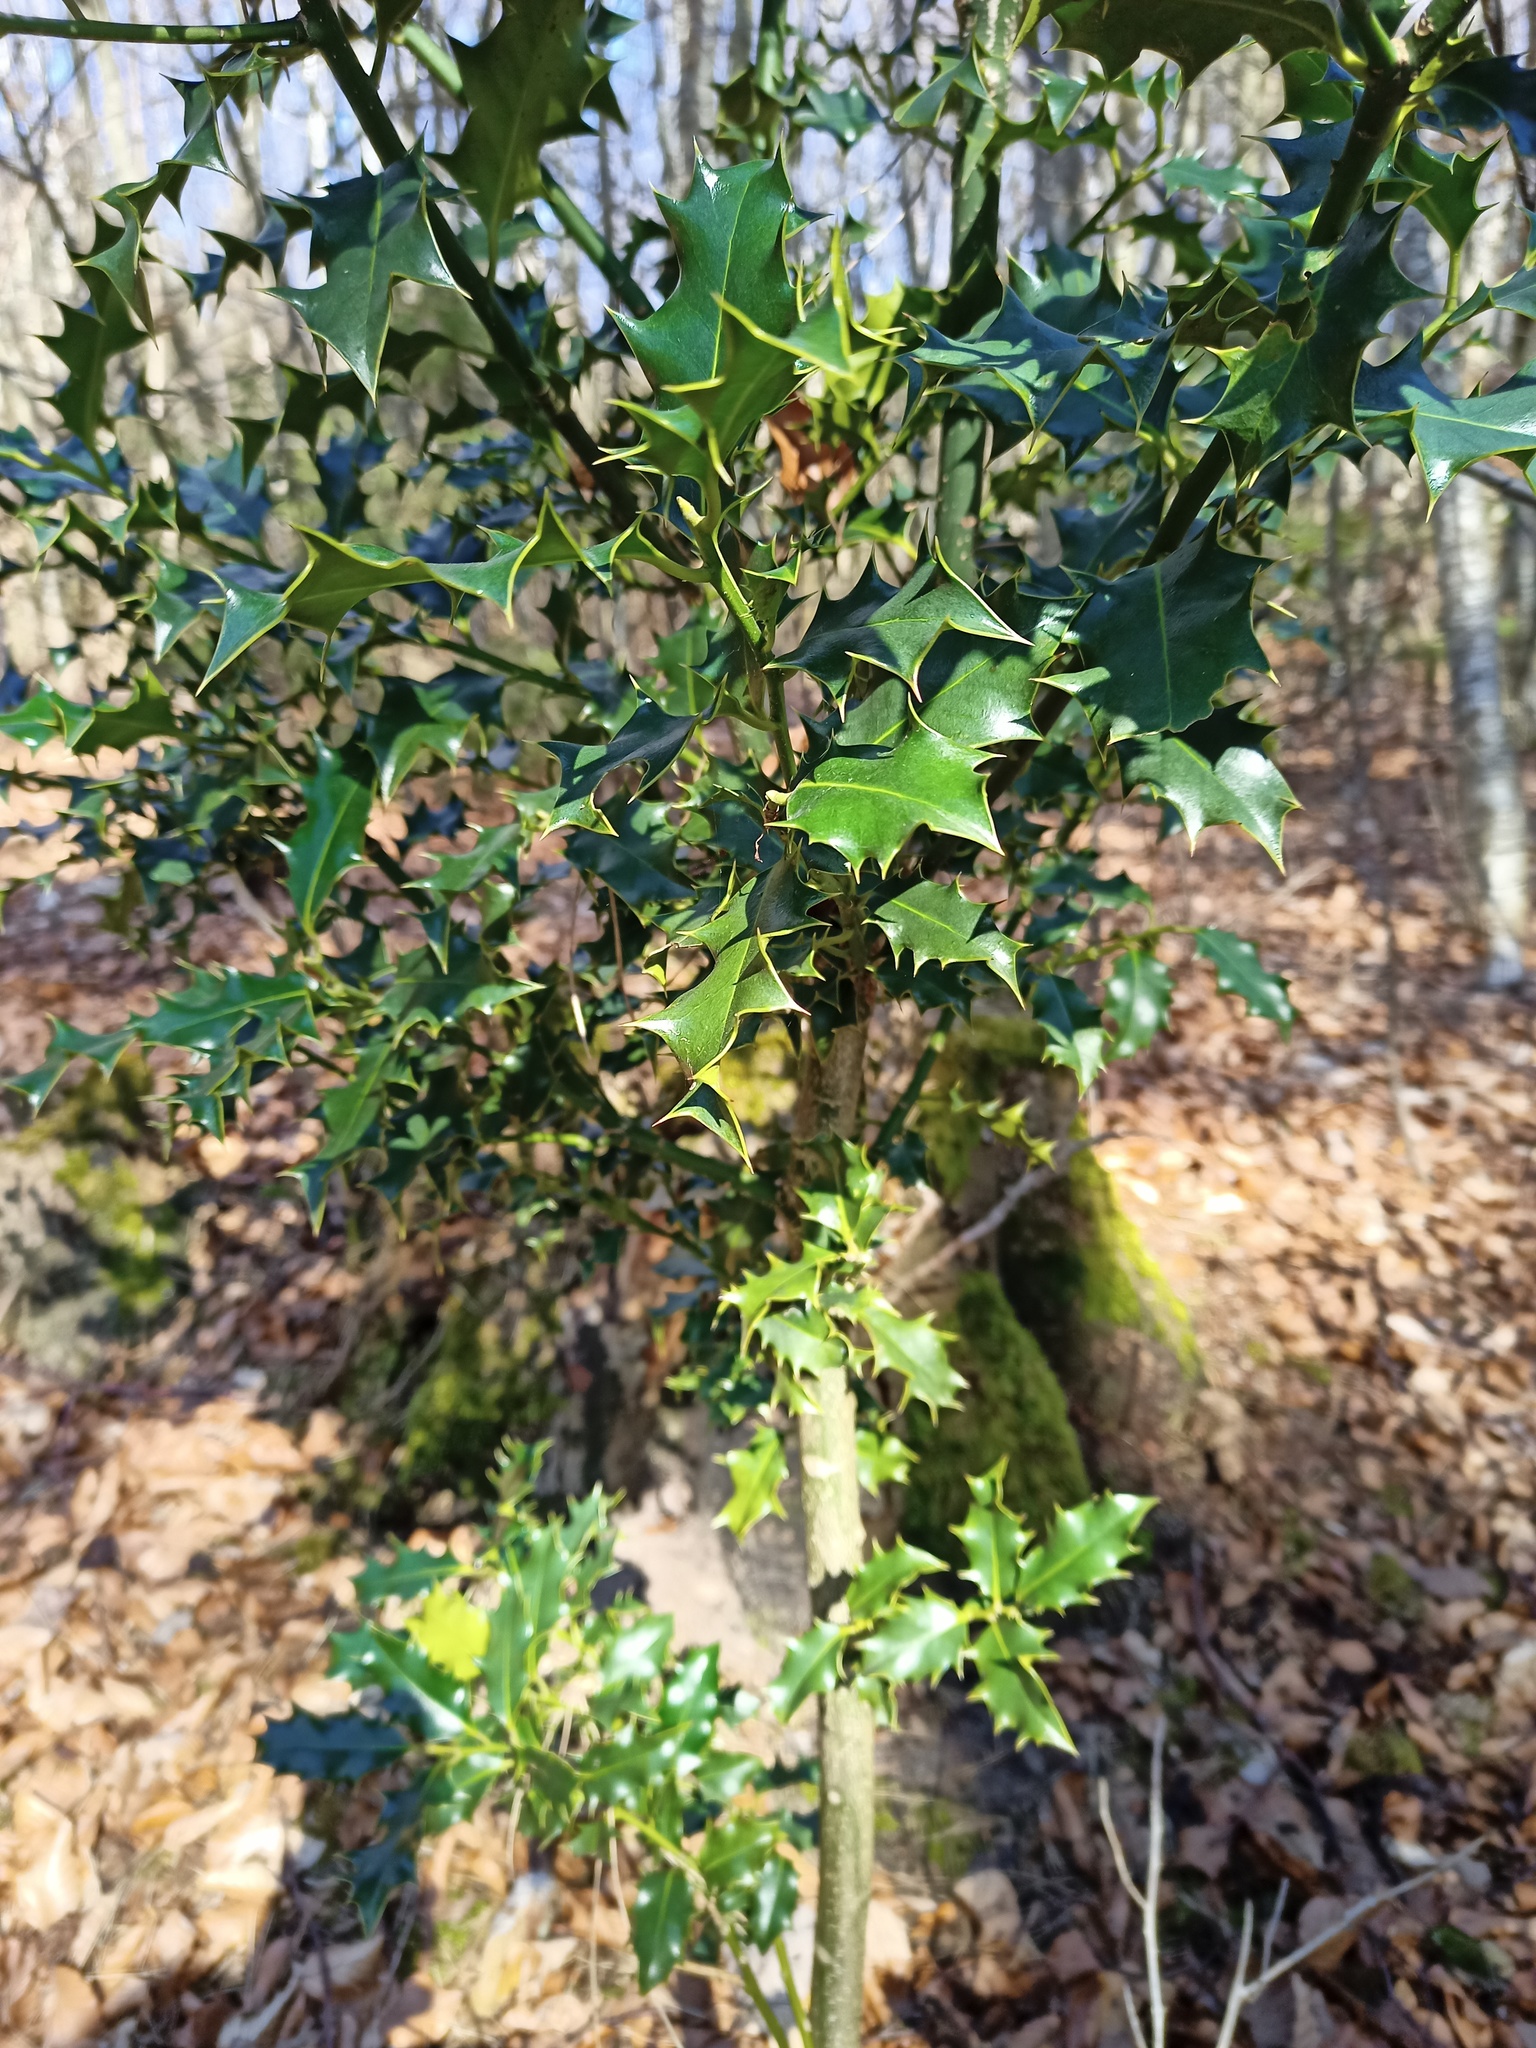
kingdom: Plantae
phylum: Tracheophyta
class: Magnoliopsida
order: Aquifoliales
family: Aquifoliaceae
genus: Ilex
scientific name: Ilex aquifolium
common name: English holly
